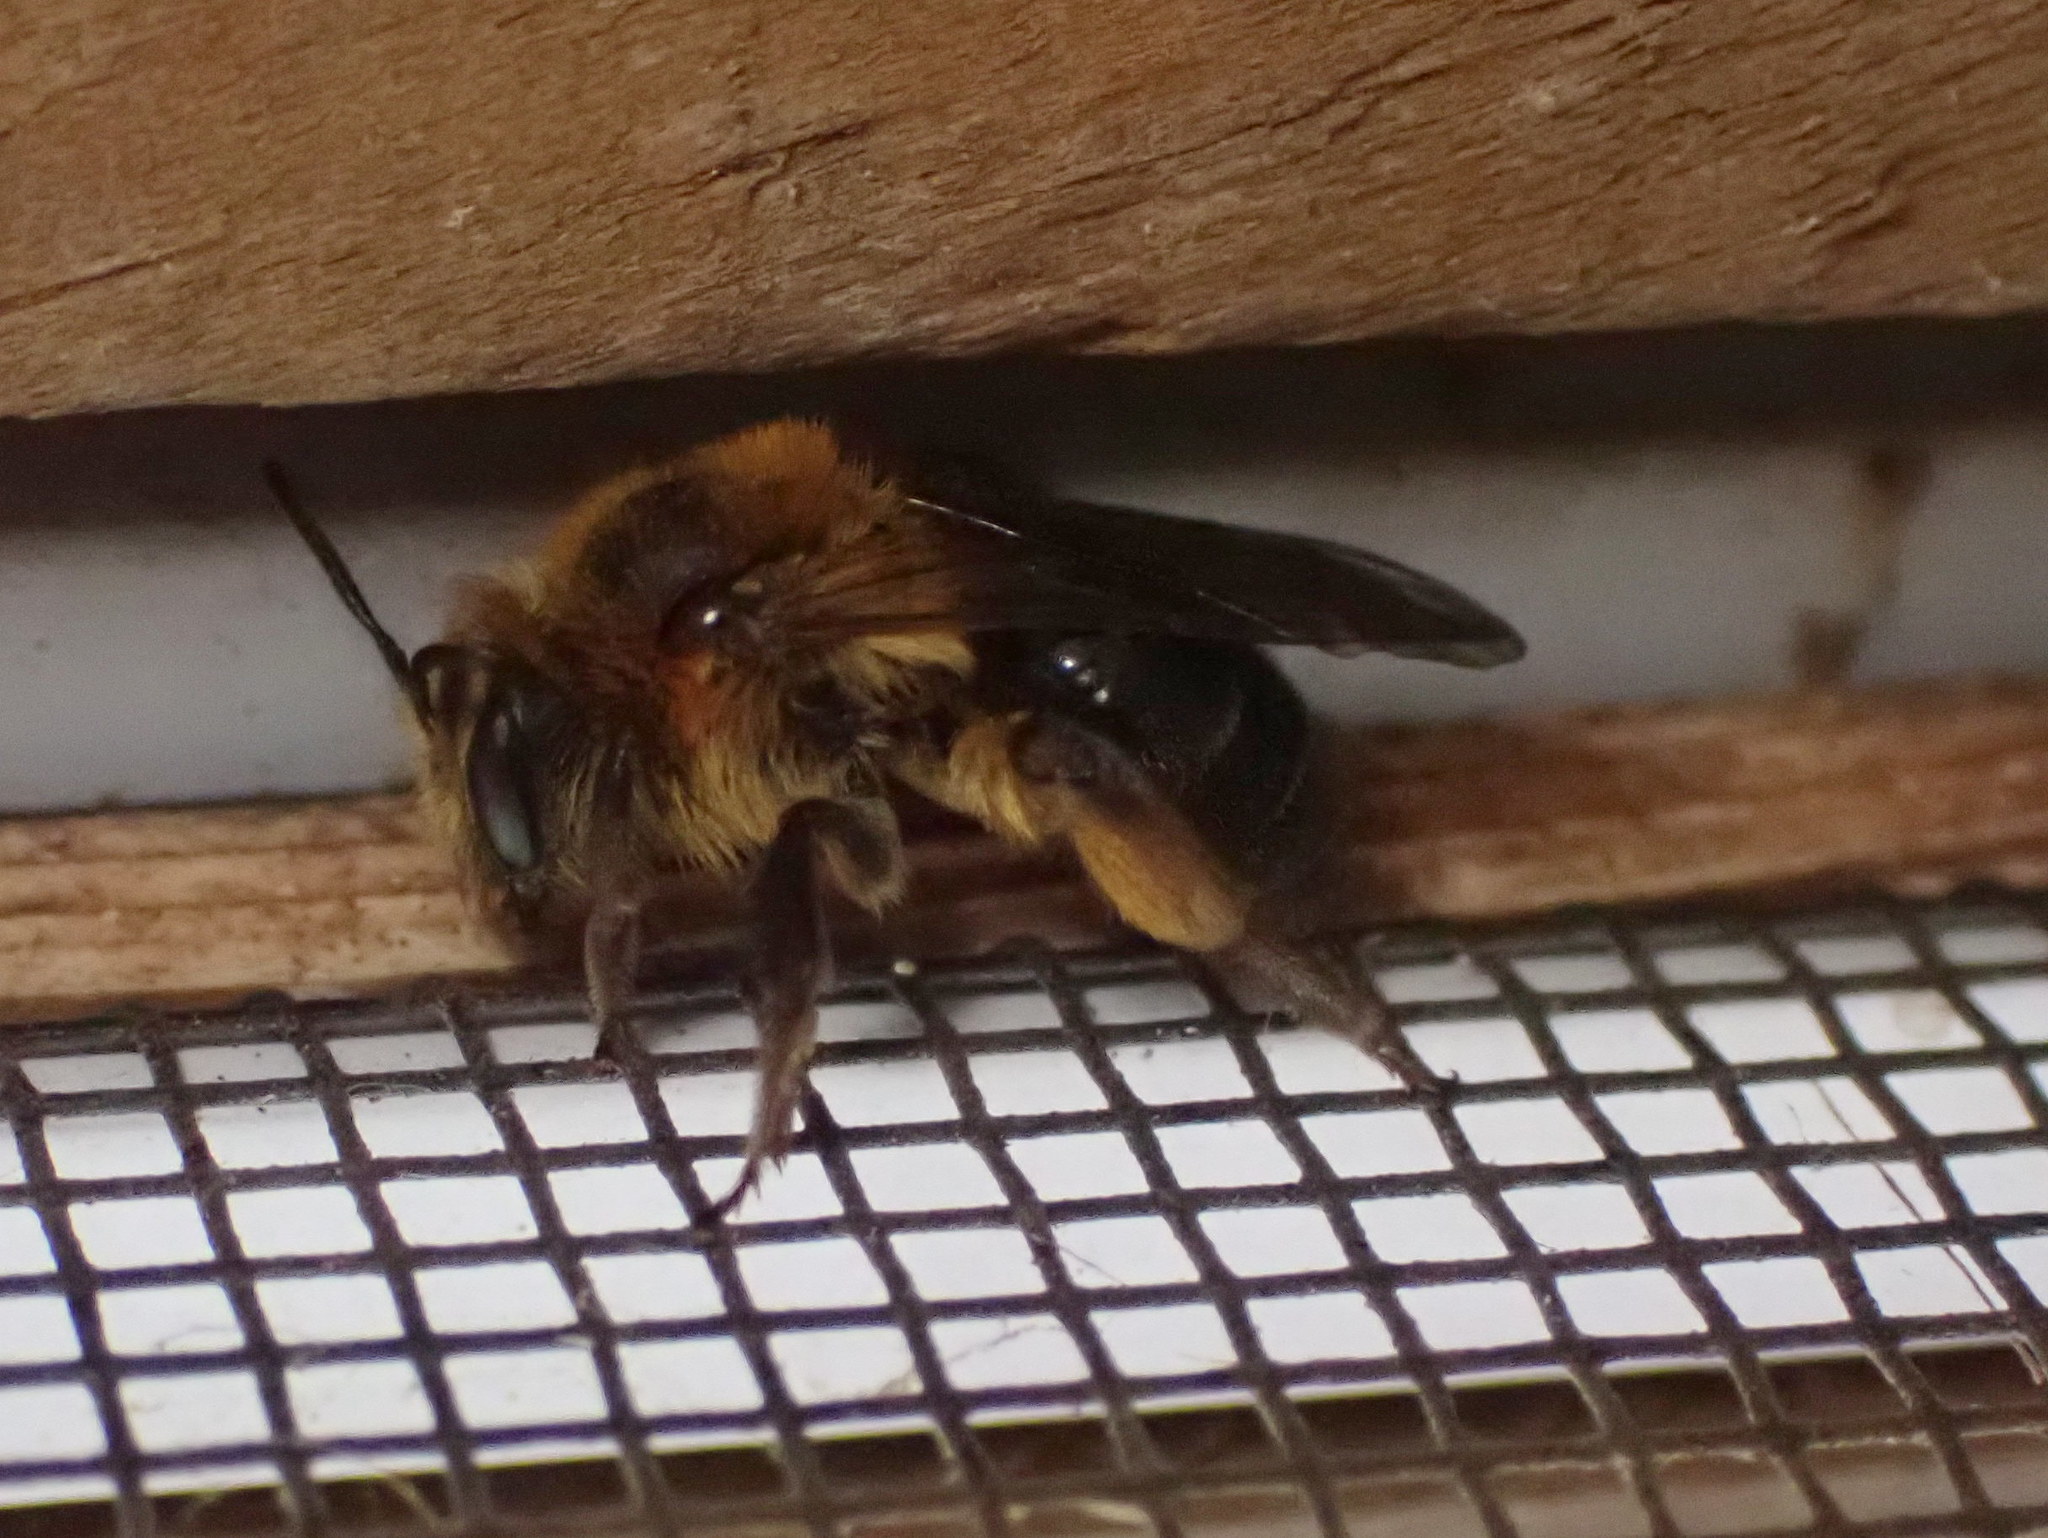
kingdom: Animalia
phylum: Arthropoda
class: Insecta
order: Hymenoptera
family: Andrenidae
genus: Andrena
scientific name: Andrena dunningi
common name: Dunning's miner
